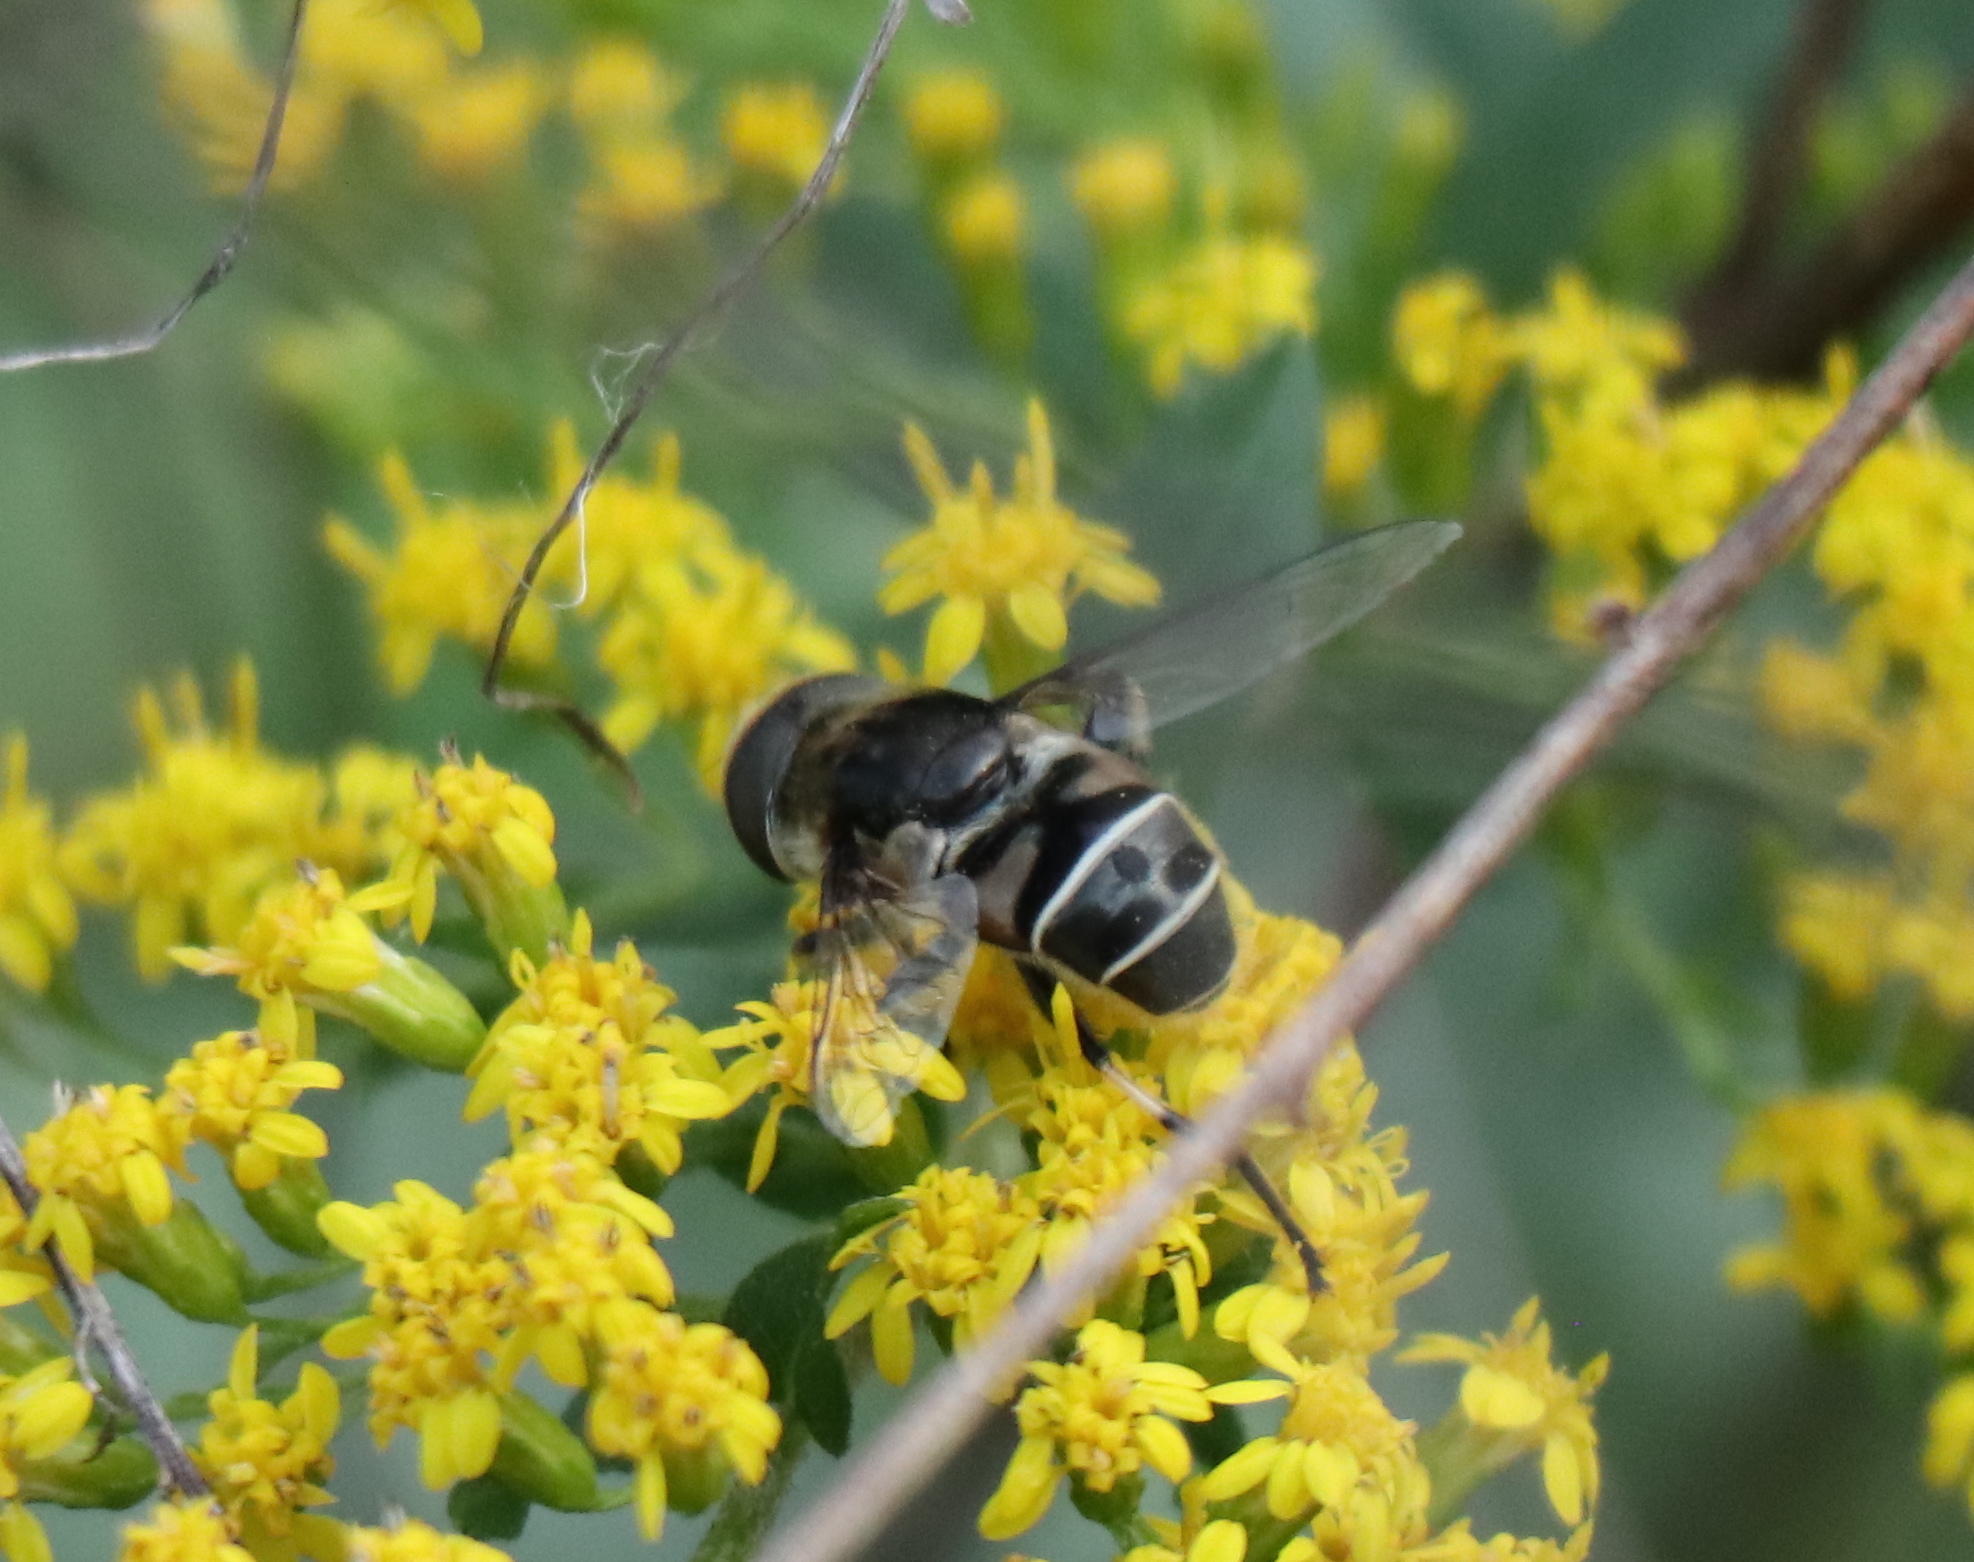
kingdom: Animalia
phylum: Arthropoda
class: Insecta
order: Diptera
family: Syrphidae
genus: Eristalis
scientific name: Eristalis dimidiata
